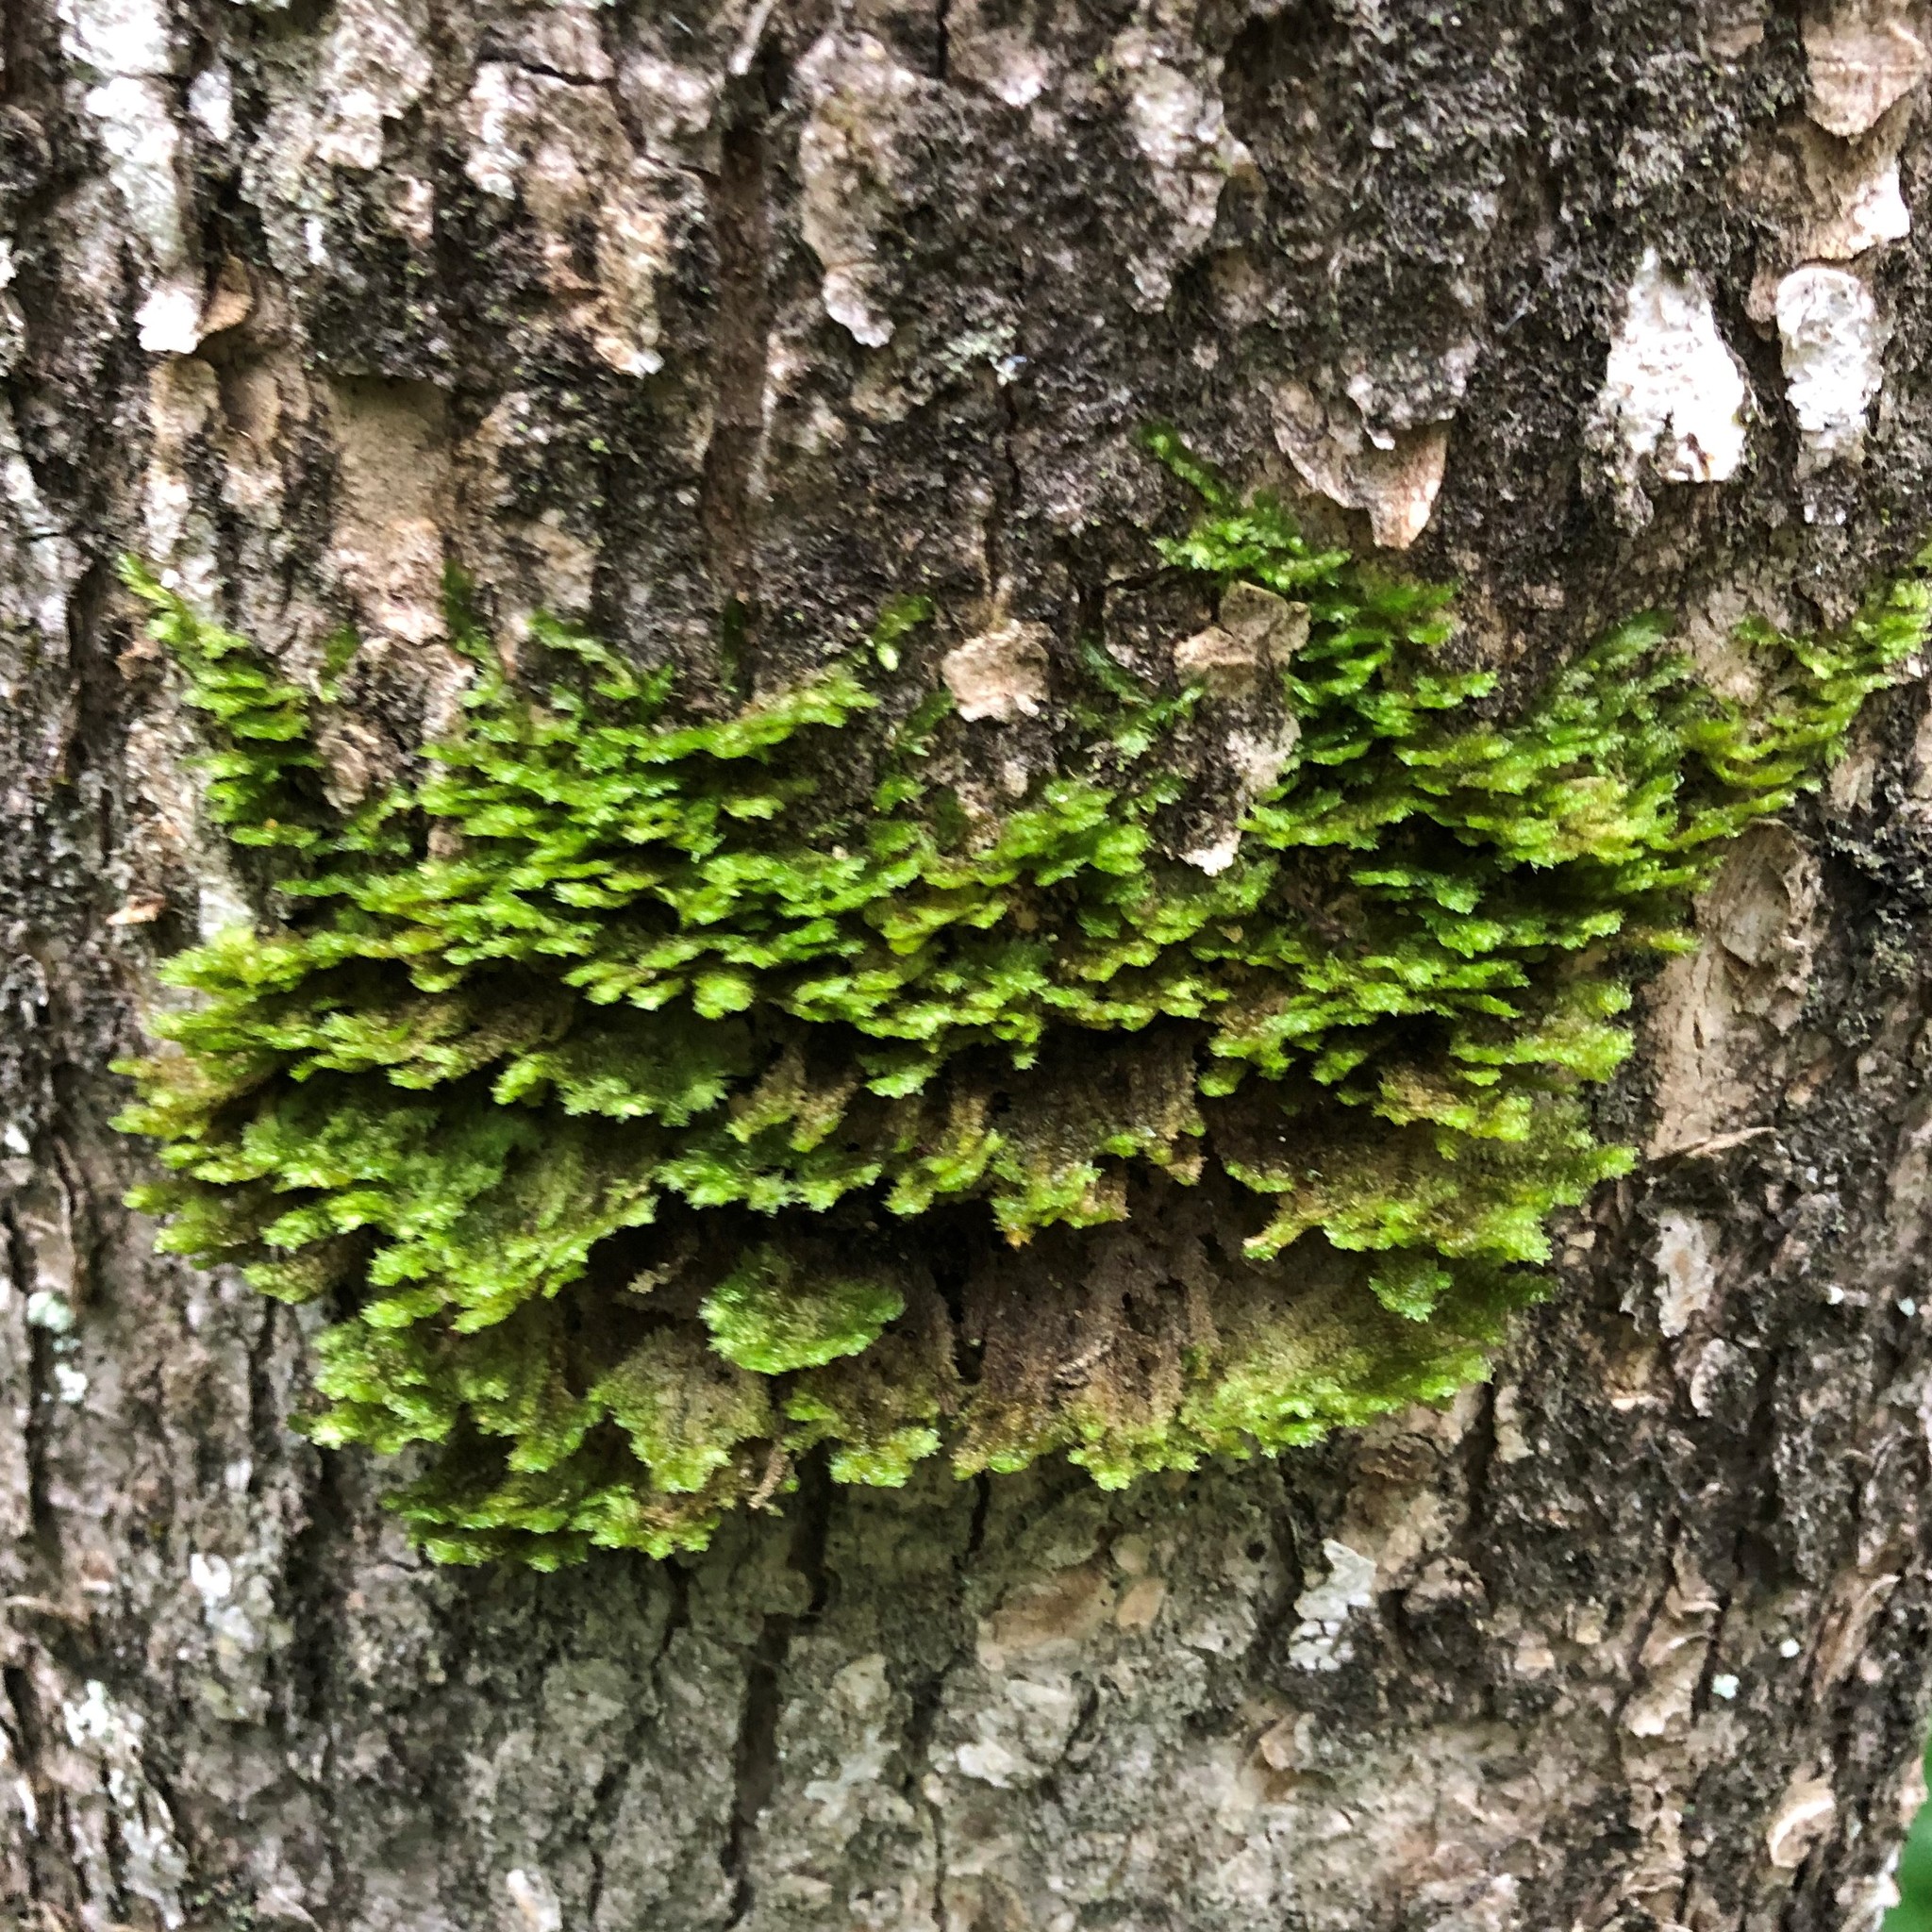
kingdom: Plantae
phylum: Bryophyta
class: Bryopsida
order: Hypnales
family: Neckeraceae
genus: Neckera
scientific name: Neckera pennata
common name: Feathery neckera
